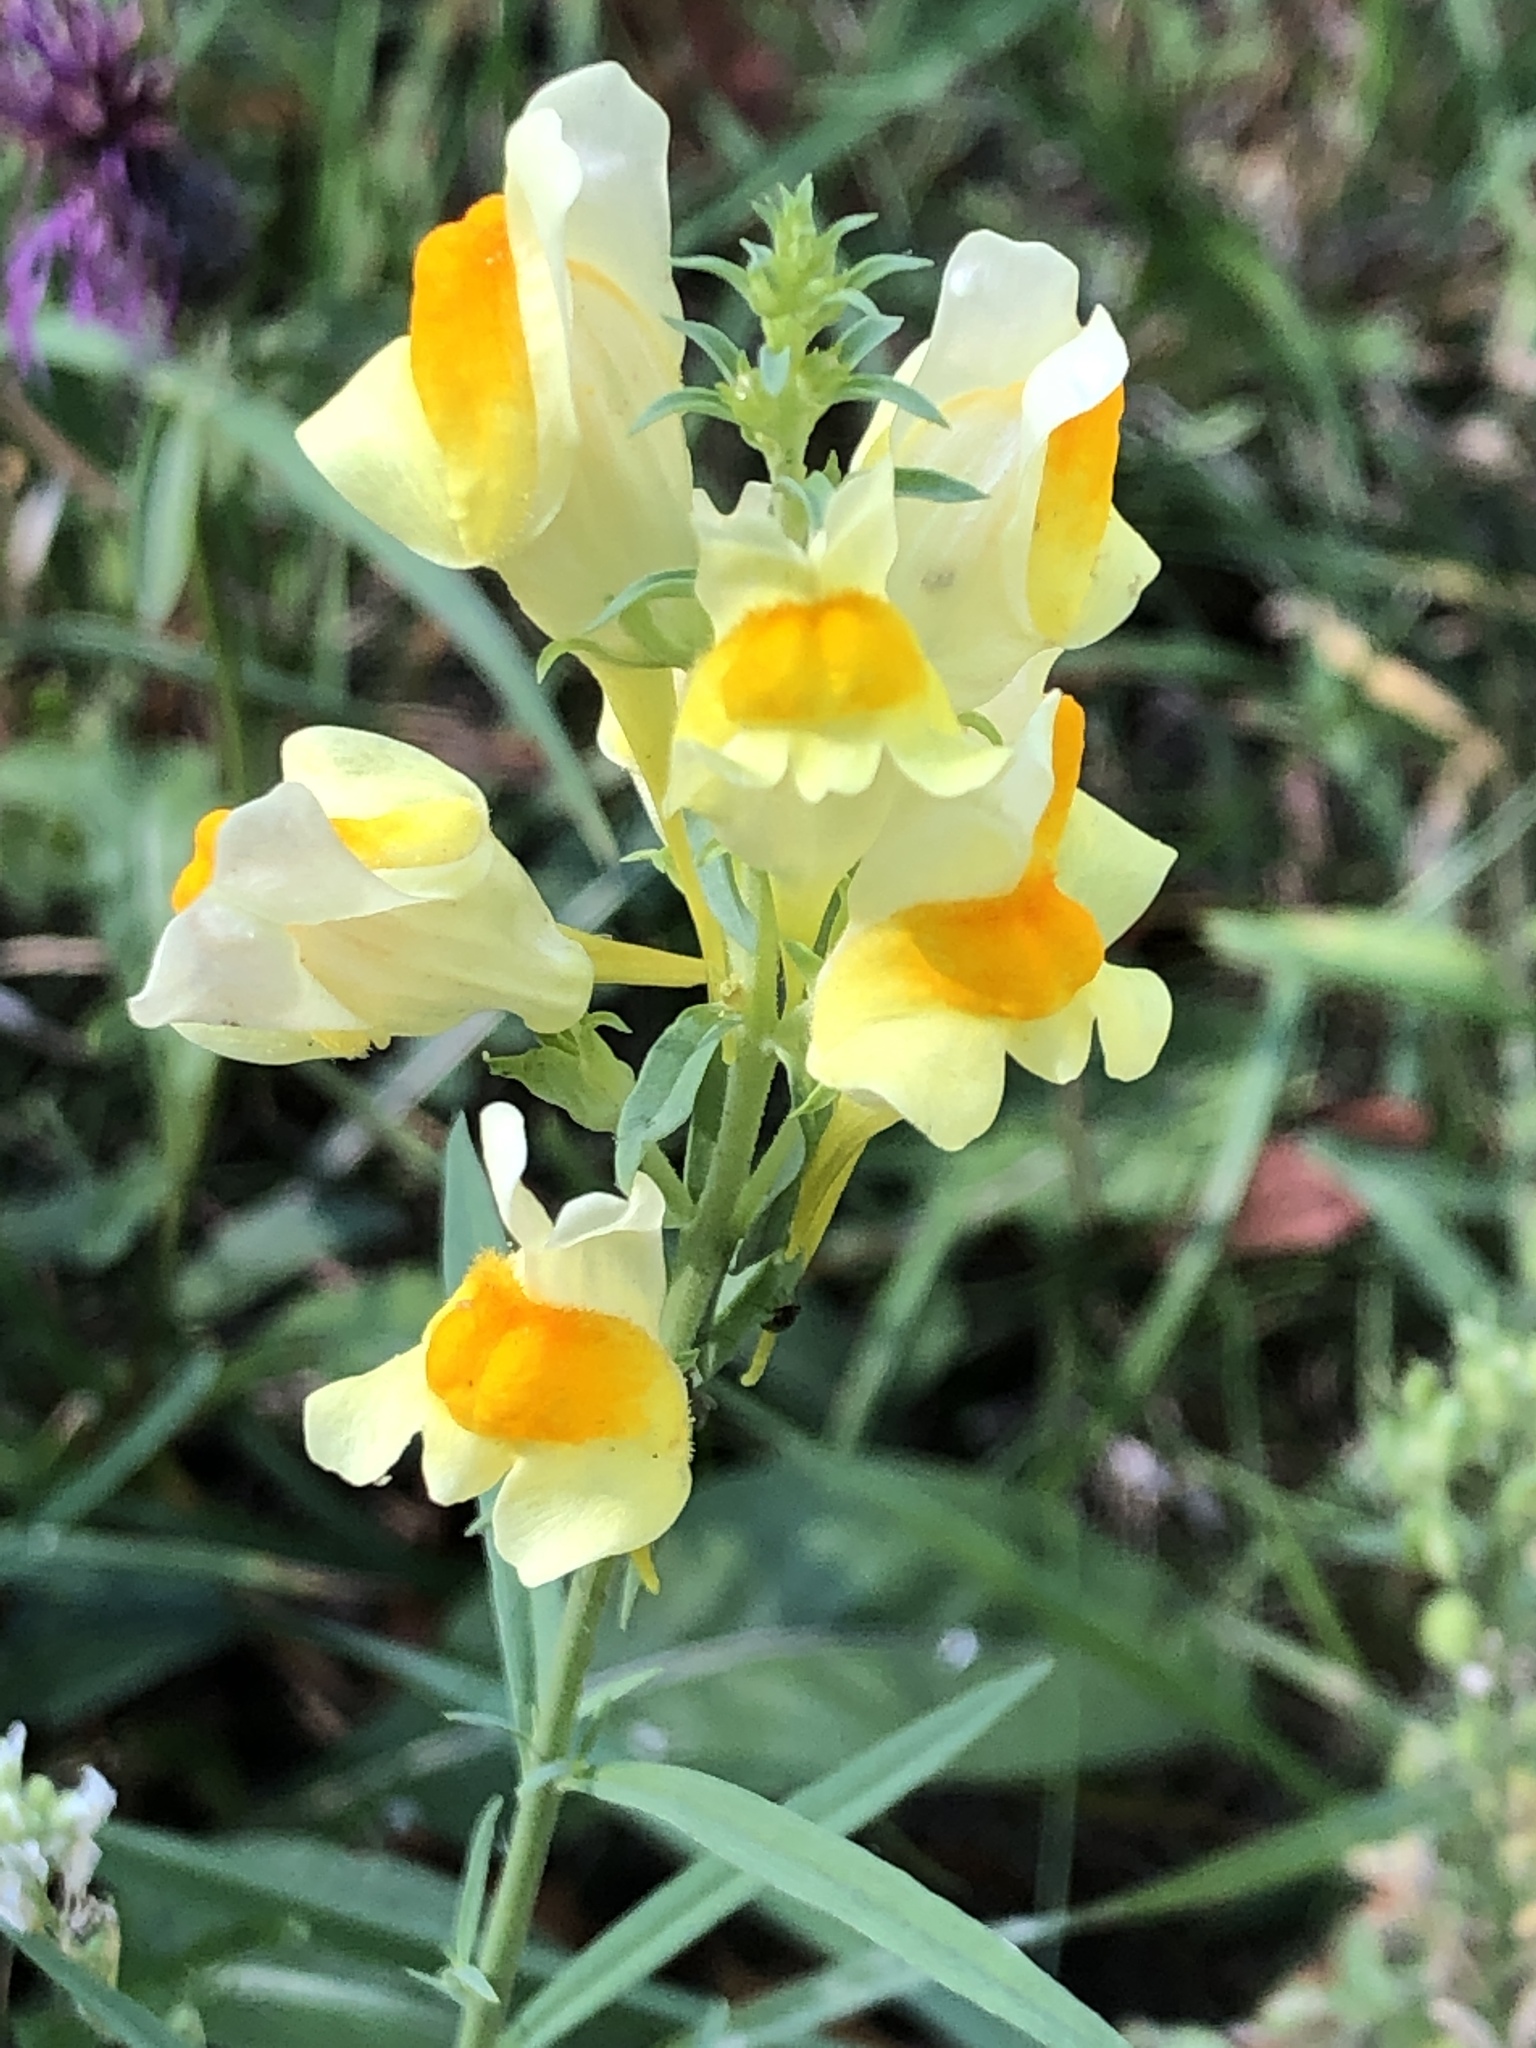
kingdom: Plantae
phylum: Tracheophyta
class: Magnoliopsida
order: Lamiales
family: Plantaginaceae
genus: Linaria
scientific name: Linaria vulgaris
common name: Butter and eggs
